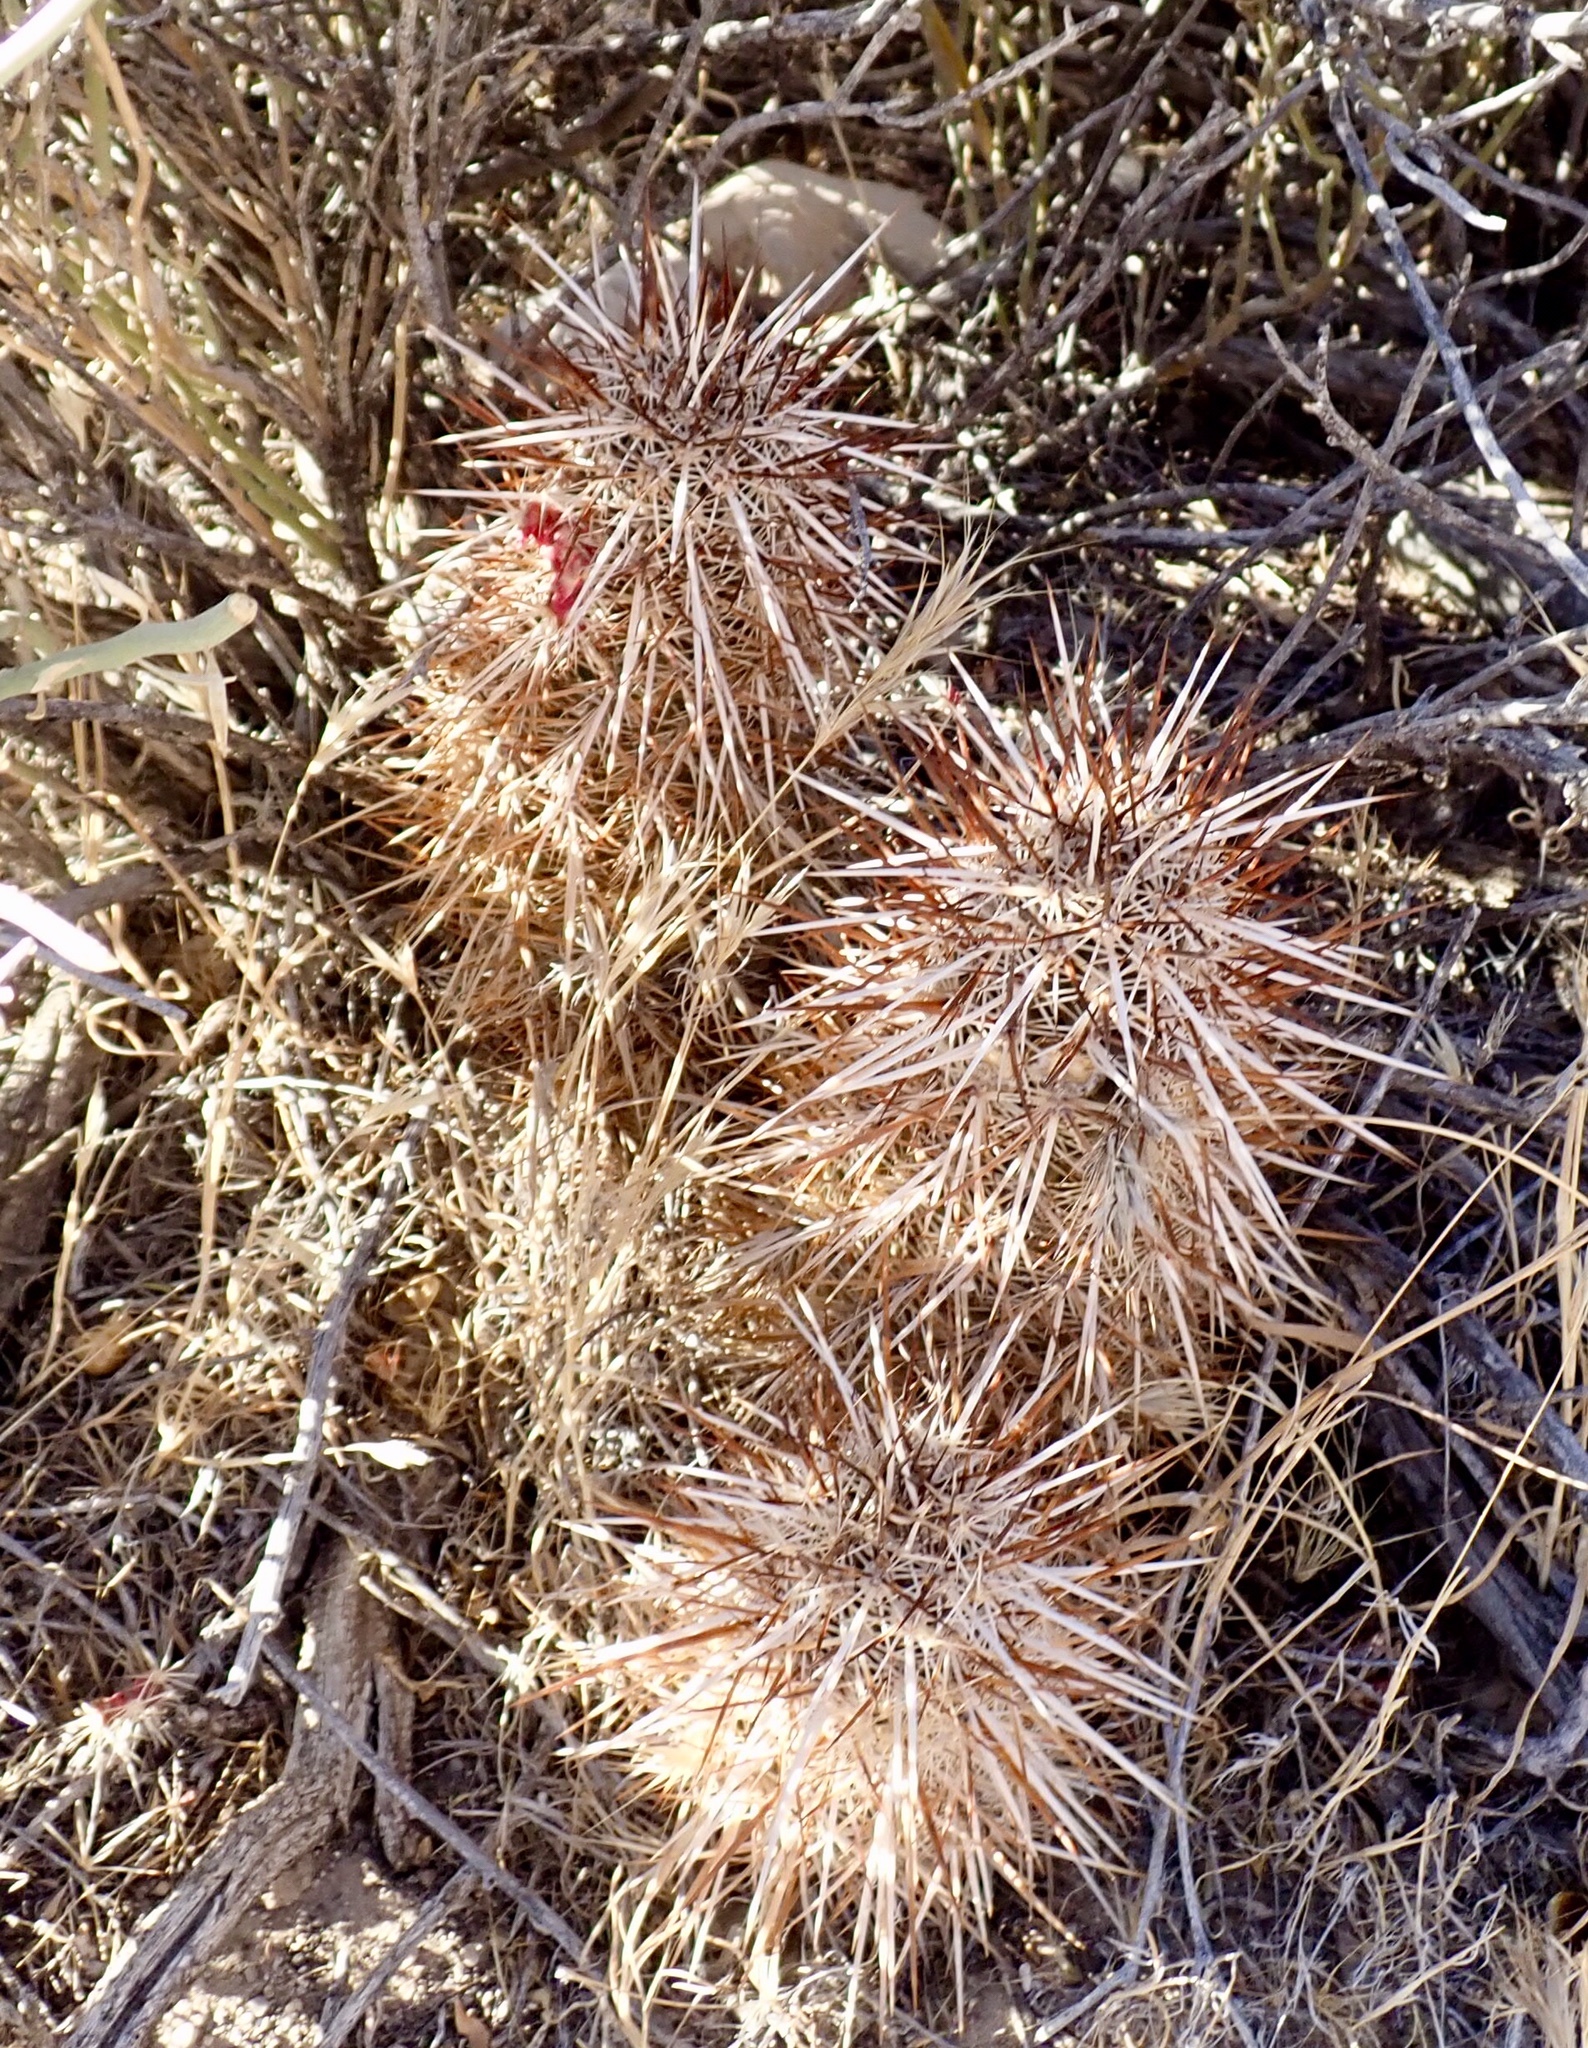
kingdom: Plantae
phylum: Tracheophyta
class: Magnoliopsida
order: Caryophyllales
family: Cactaceae
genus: Echinocereus
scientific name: Echinocereus engelmannii
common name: Engelmann's hedgehog cactus
